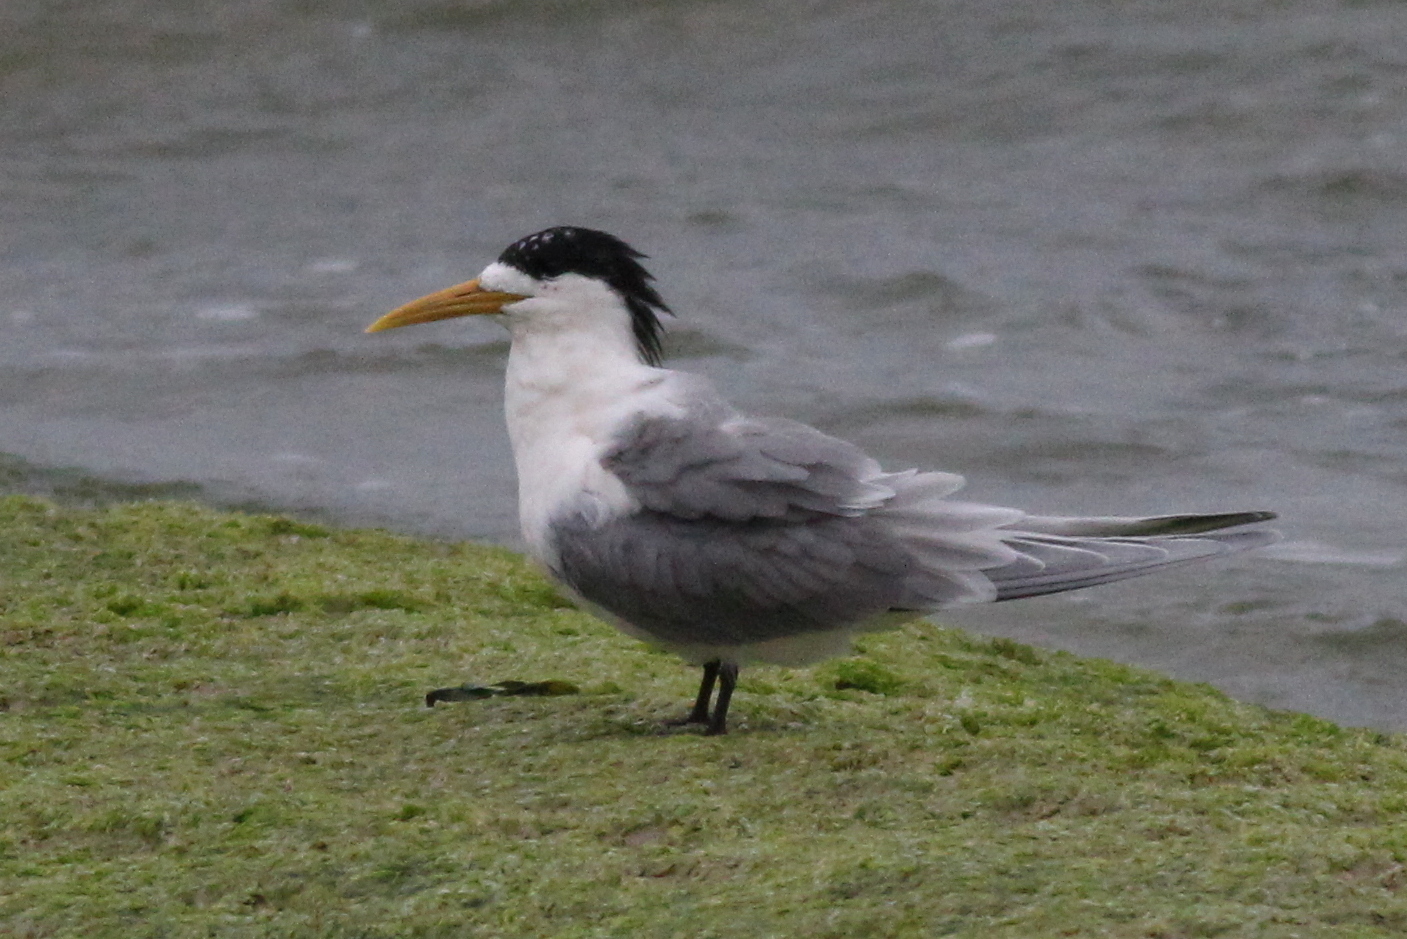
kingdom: Animalia
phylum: Chordata
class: Aves
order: Charadriiformes
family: Laridae
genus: Thalasseus
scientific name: Thalasseus bergii
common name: Greater crested tern
